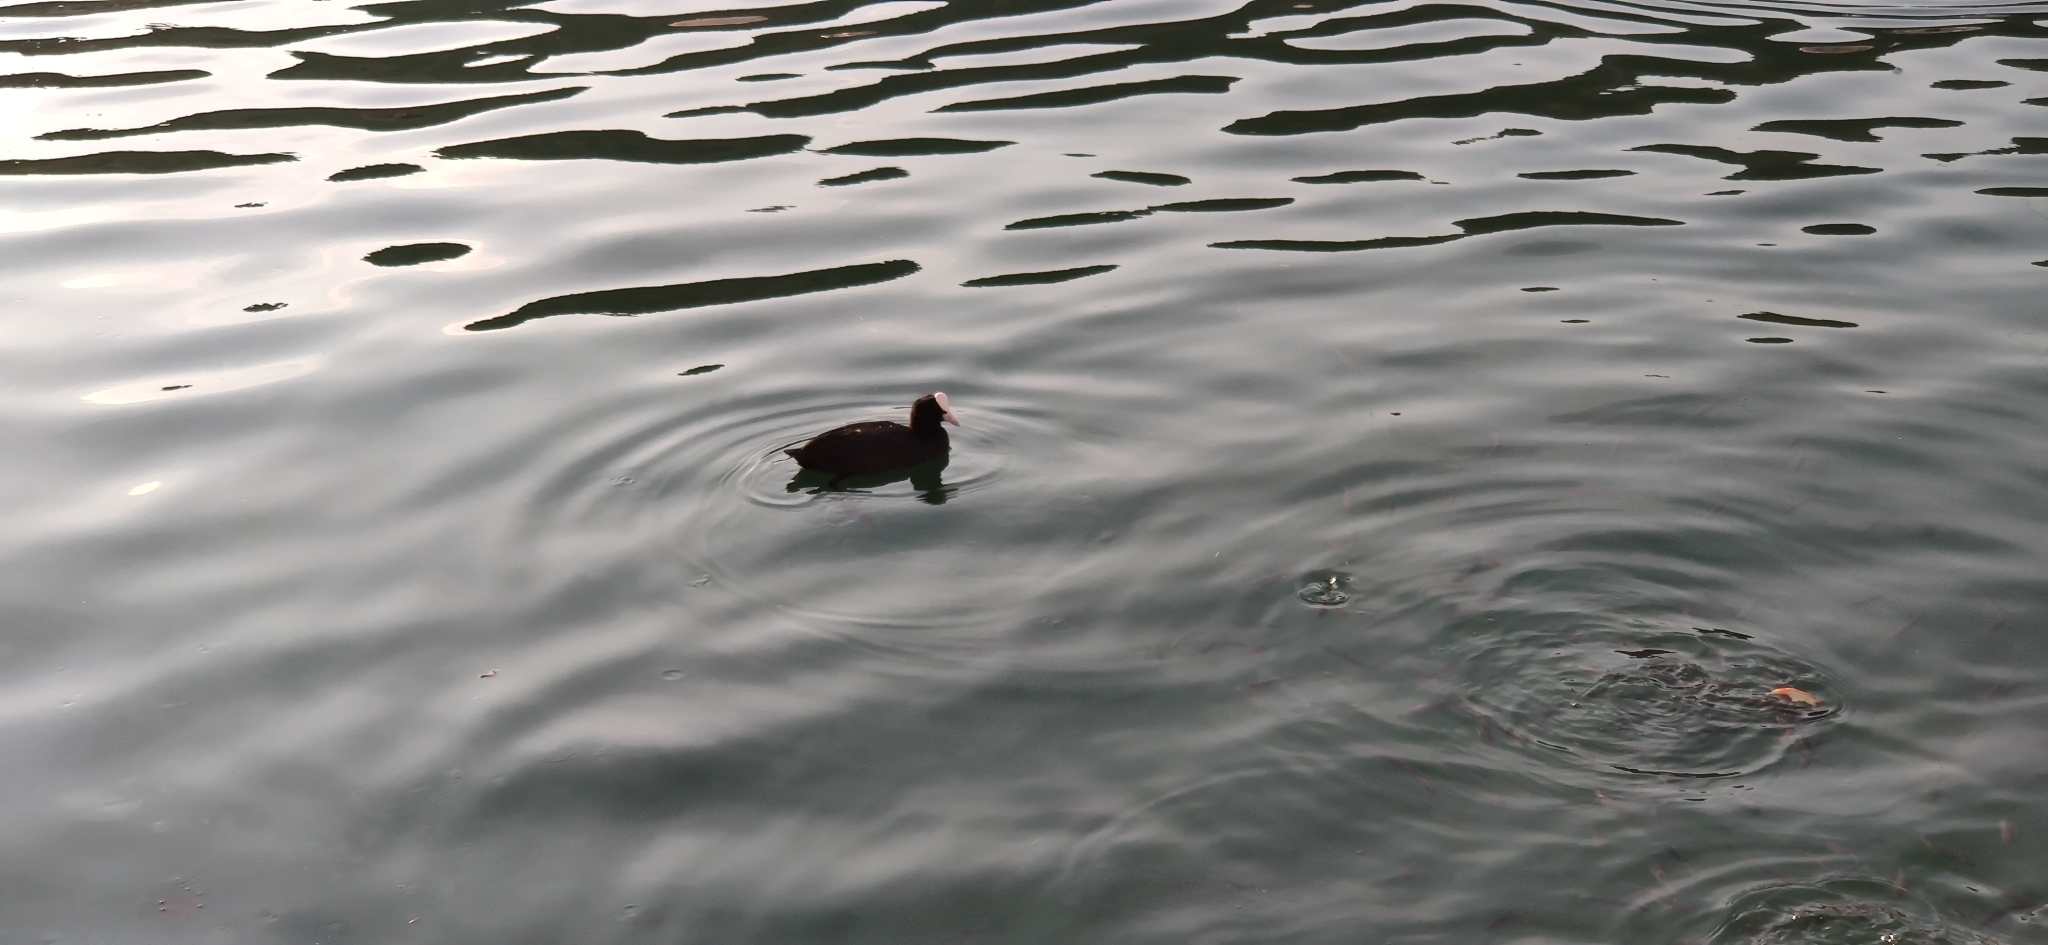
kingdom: Animalia
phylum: Chordata
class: Aves
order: Gruiformes
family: Rallidae
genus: Fulica
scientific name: Fulica atra
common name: Eurasian coot
